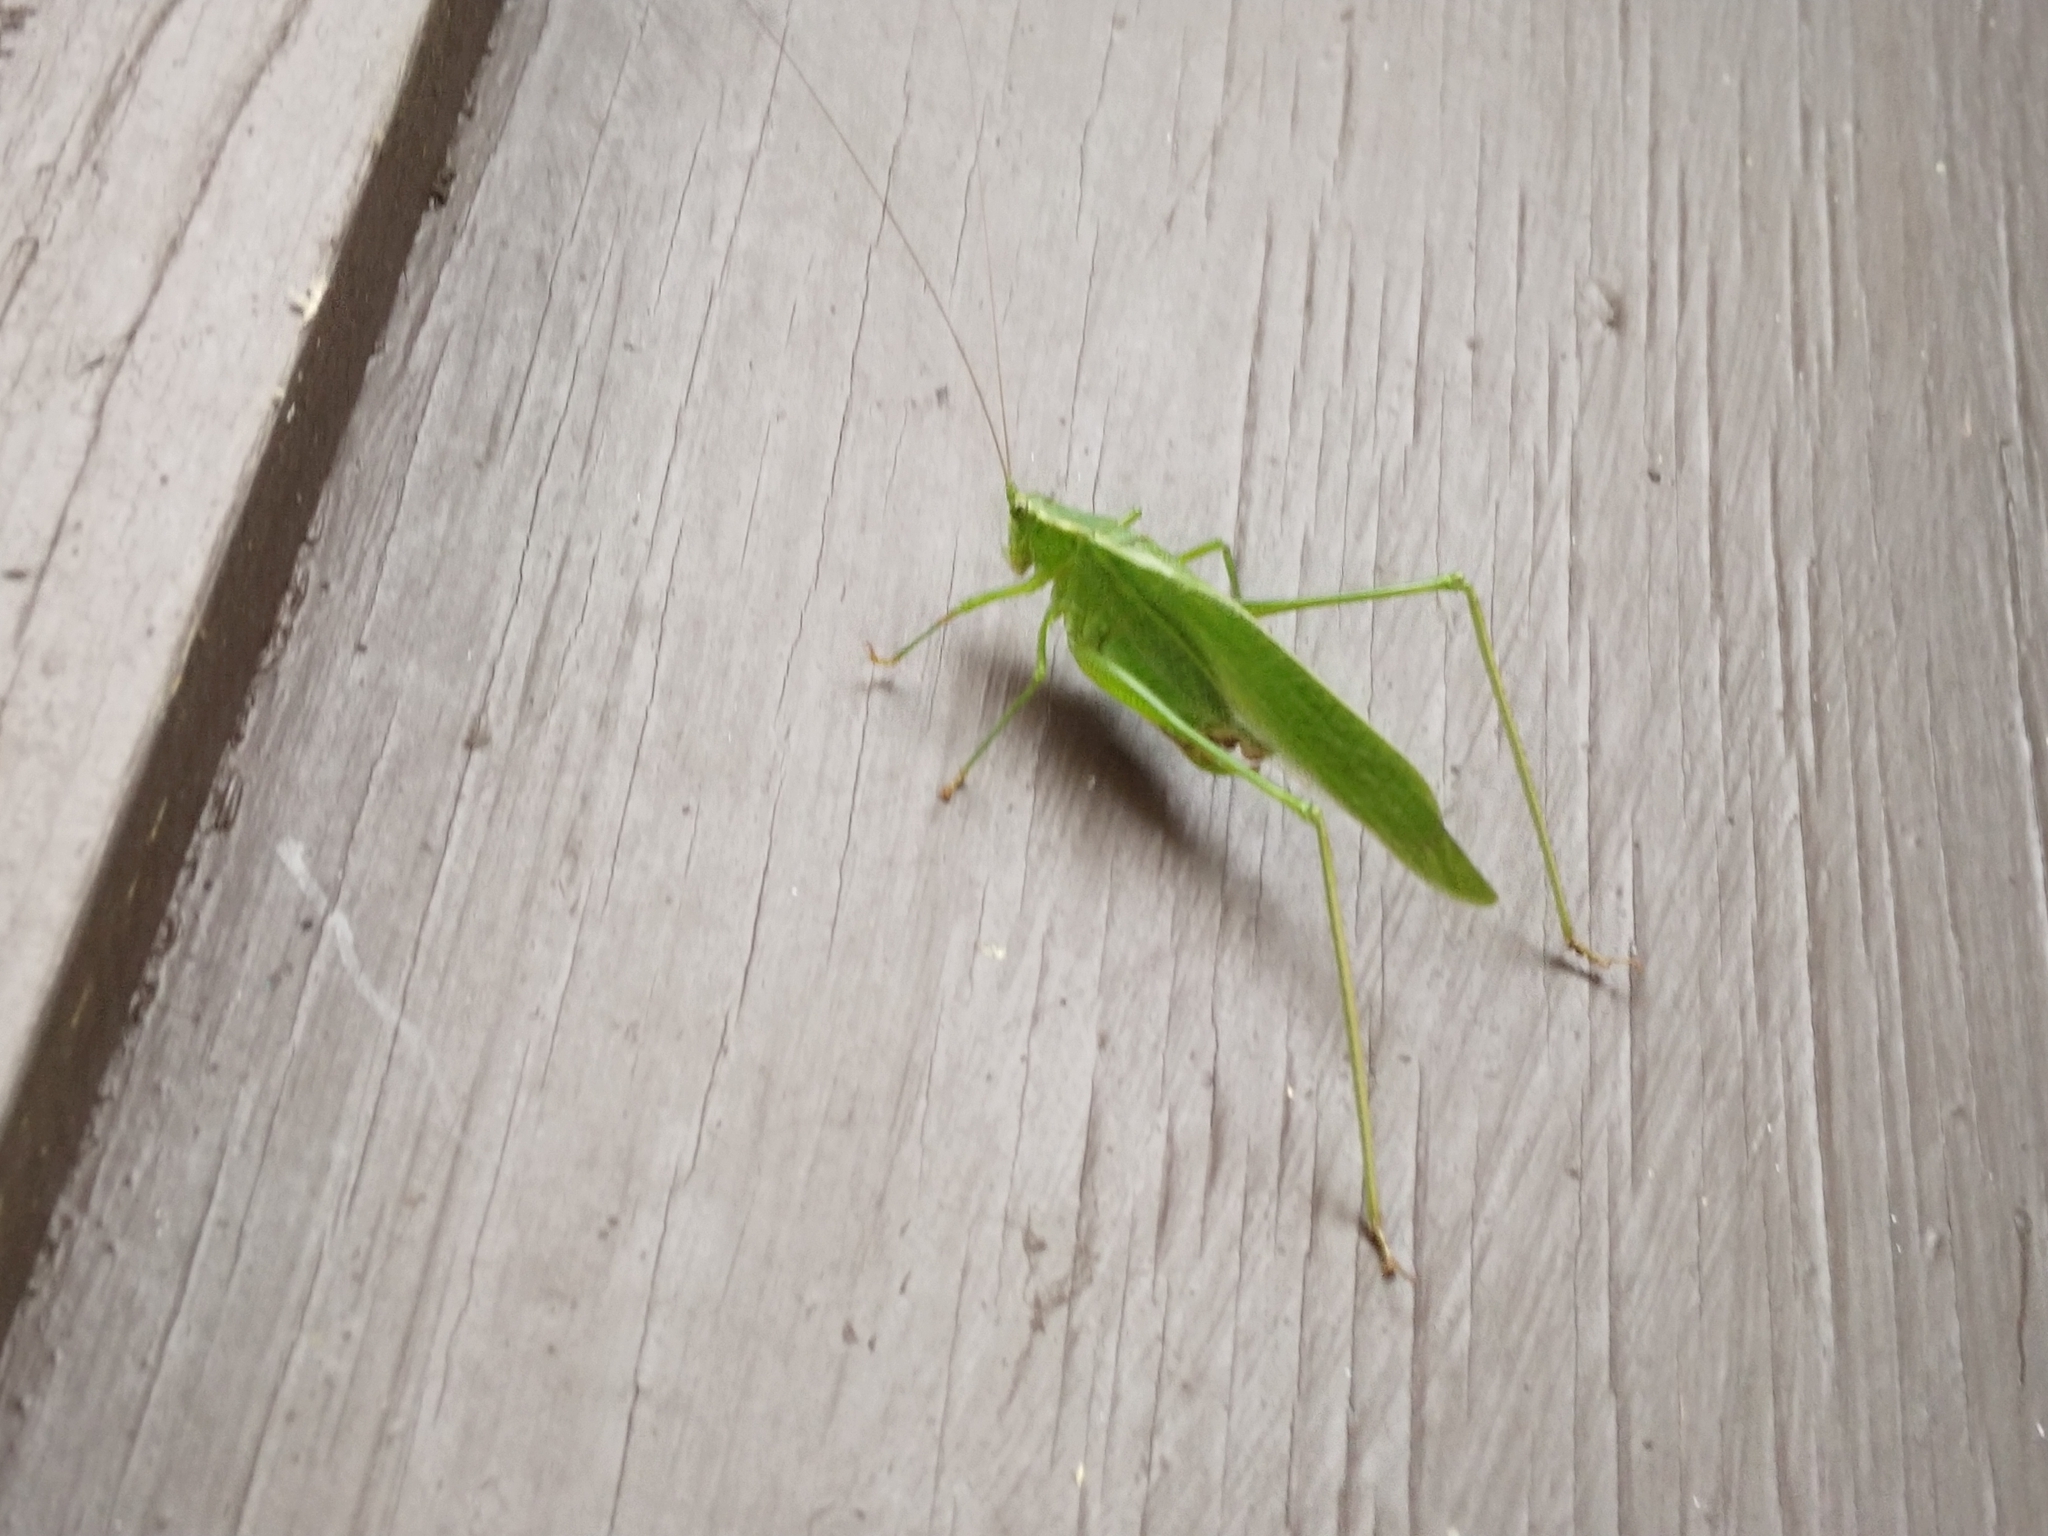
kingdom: Animalia
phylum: Arthropoda
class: Insecta
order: Orthoptera
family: Tettigoniidae
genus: Scudderia
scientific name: Scudderia furcata
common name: Fork-tailed bush katydid
